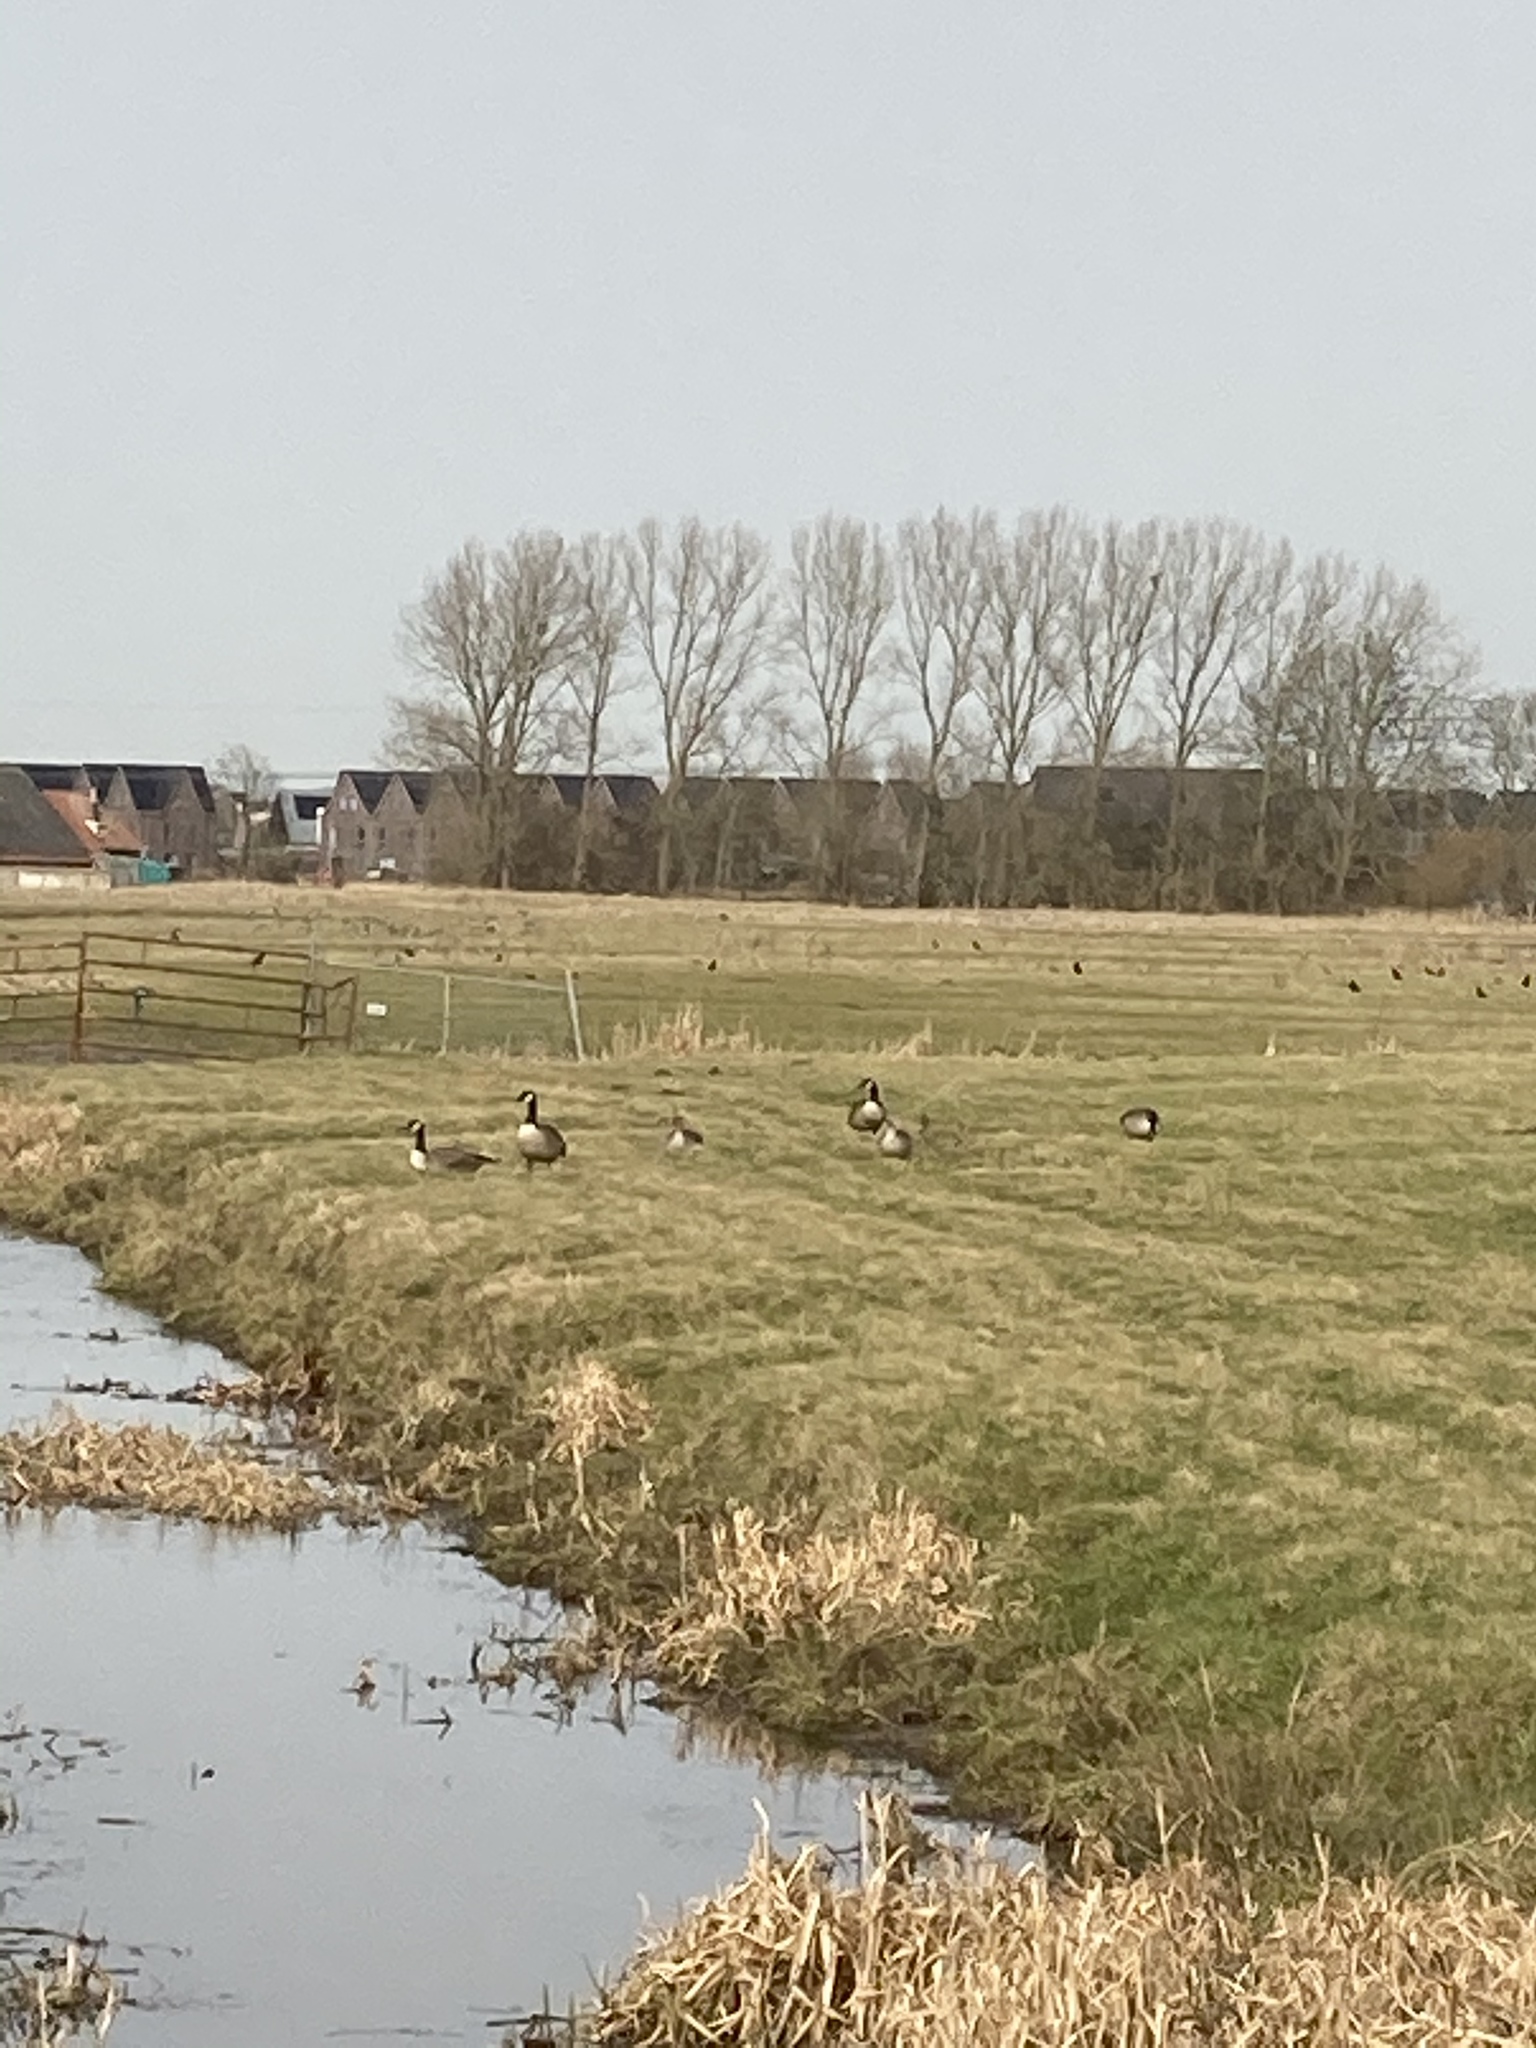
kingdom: Animalia
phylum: Chordata
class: Aves
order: Anseriformes
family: Anatidae
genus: Branta
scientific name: Branta canadensis
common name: Canada goose
